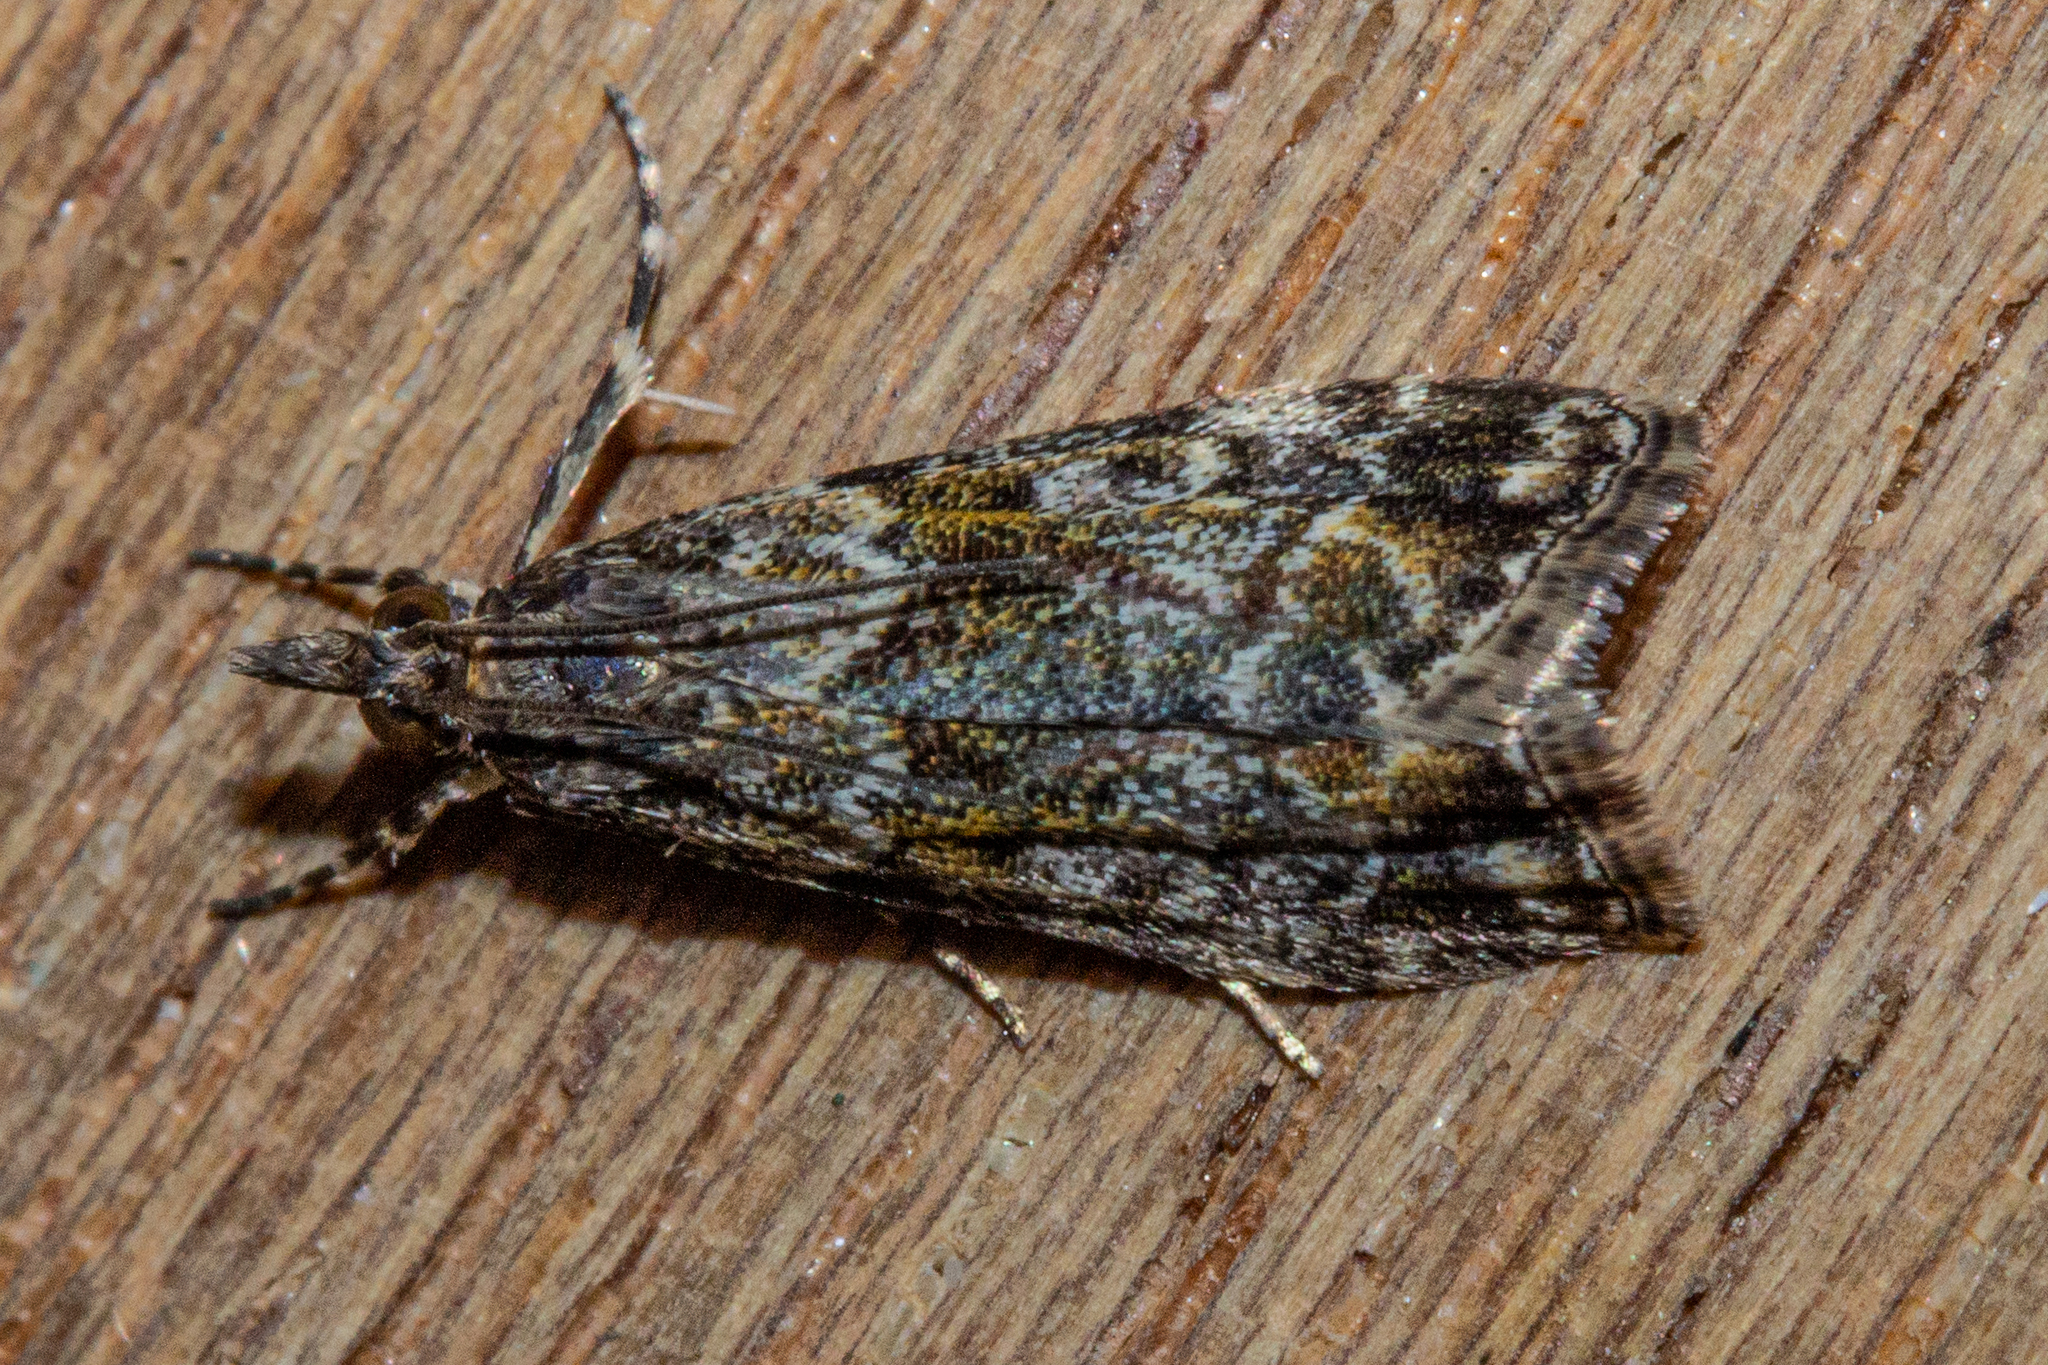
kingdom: Animalia
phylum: Arthropoda
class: Insecta
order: Lepidoptera
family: Crambidae
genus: Eudonia
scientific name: Eudonia minualis
